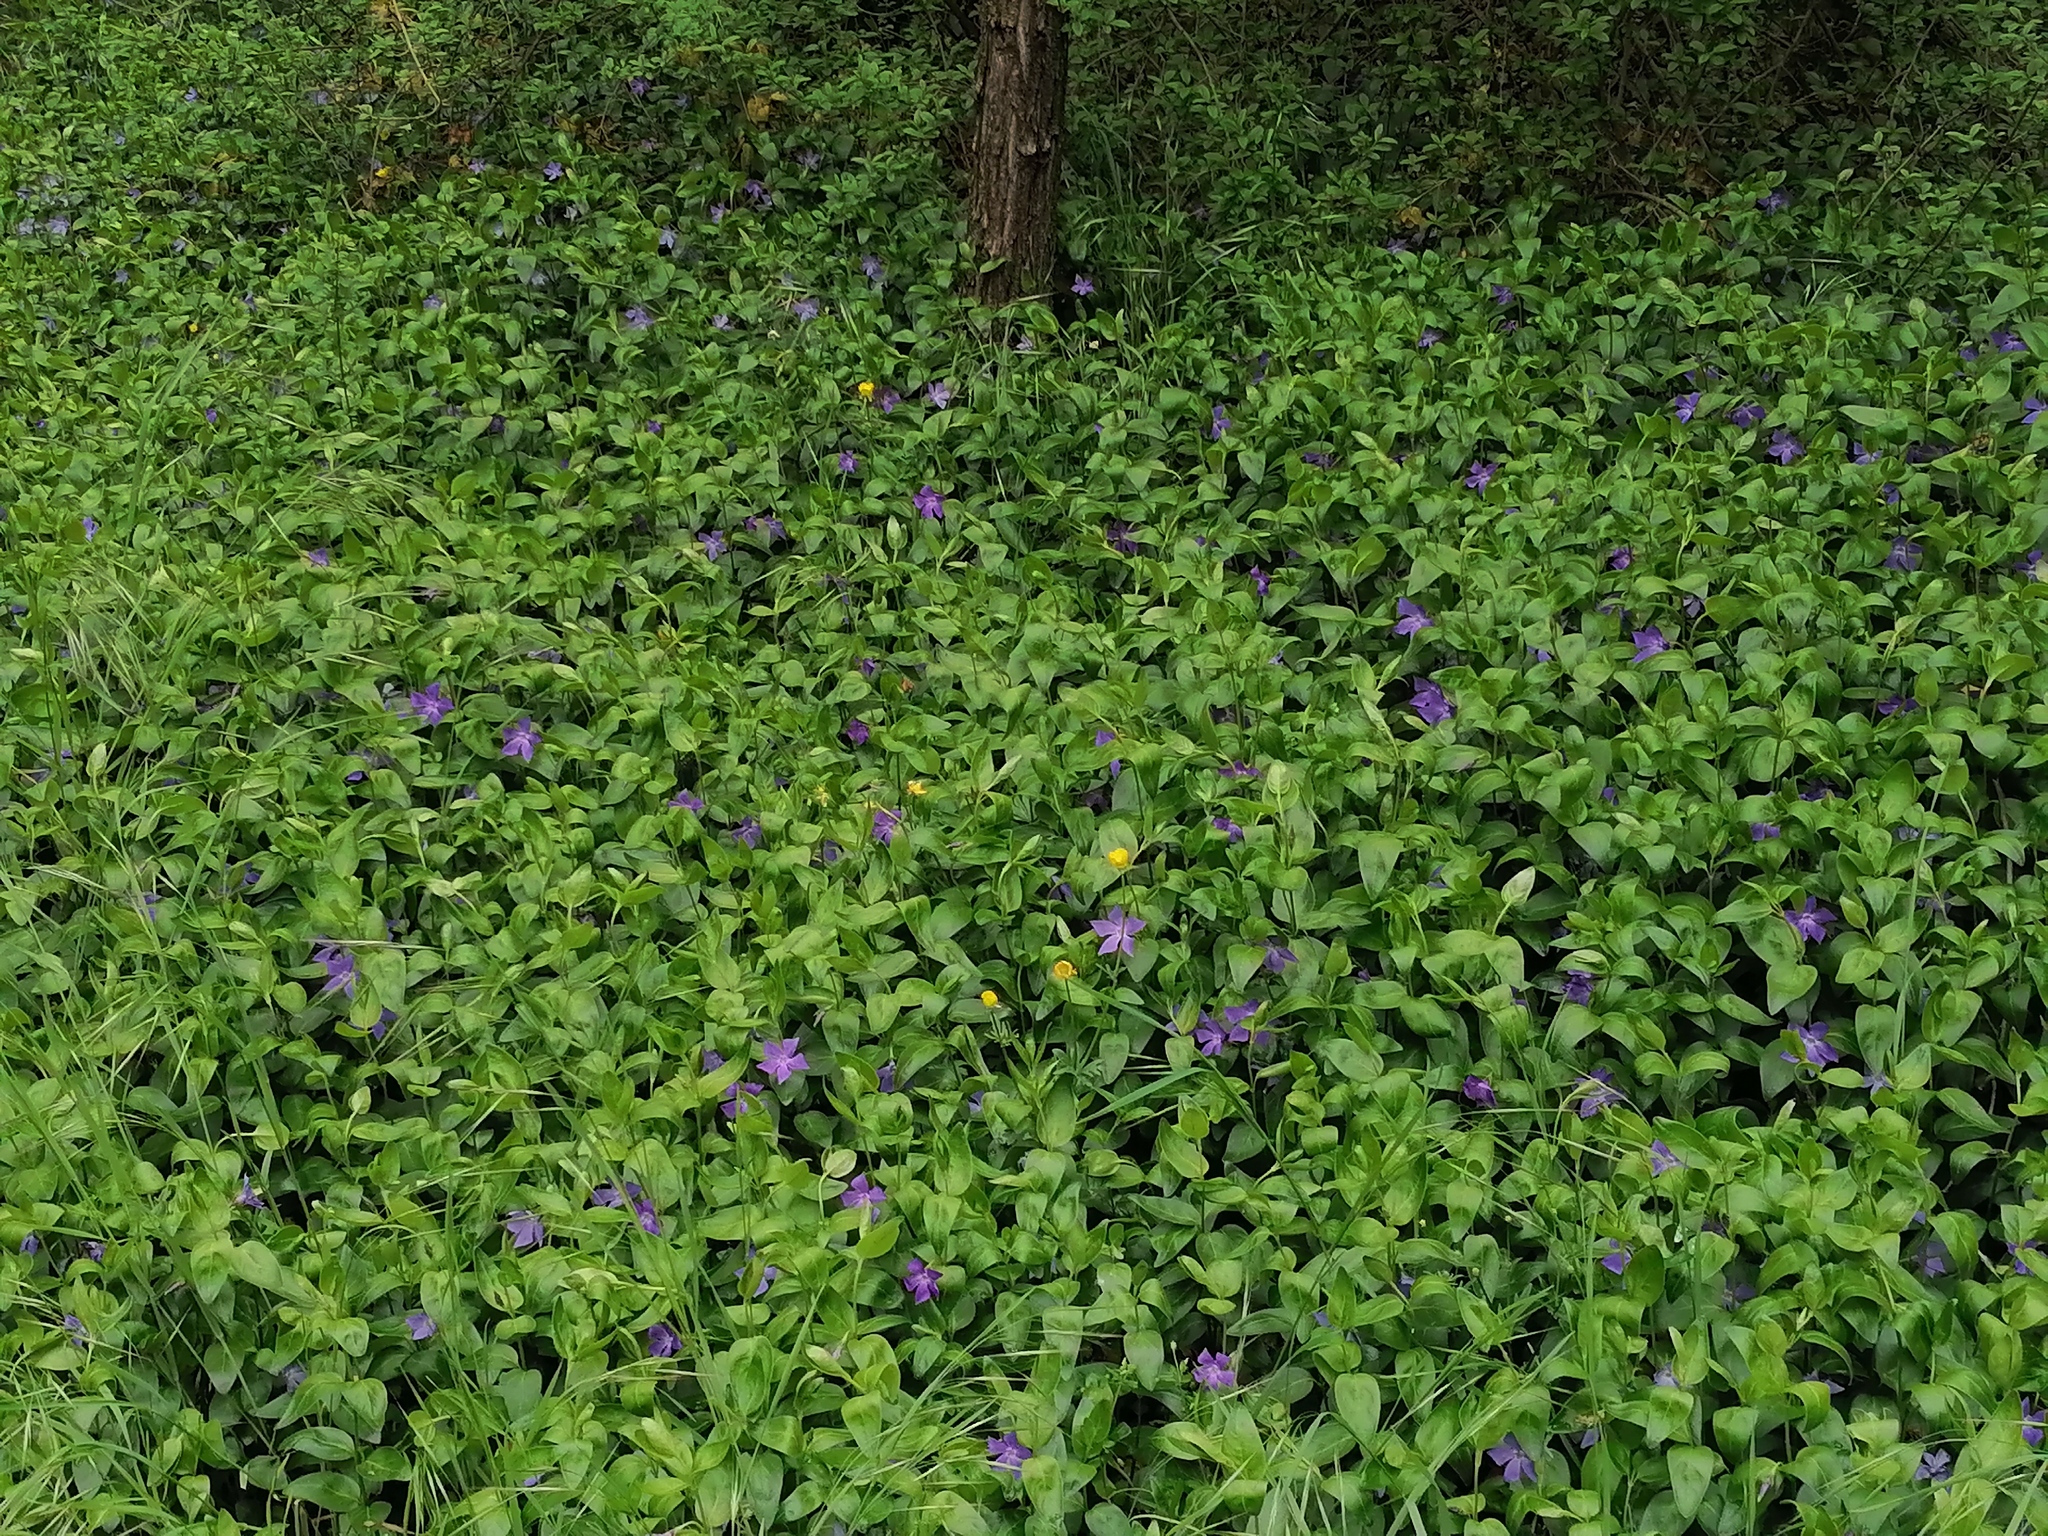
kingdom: Plantae
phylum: Tracheophyta
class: Magnoliopsida
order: Gentianales
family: Apocynaceae
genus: Vinca
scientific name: Vinca major
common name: Greater periwinkle
